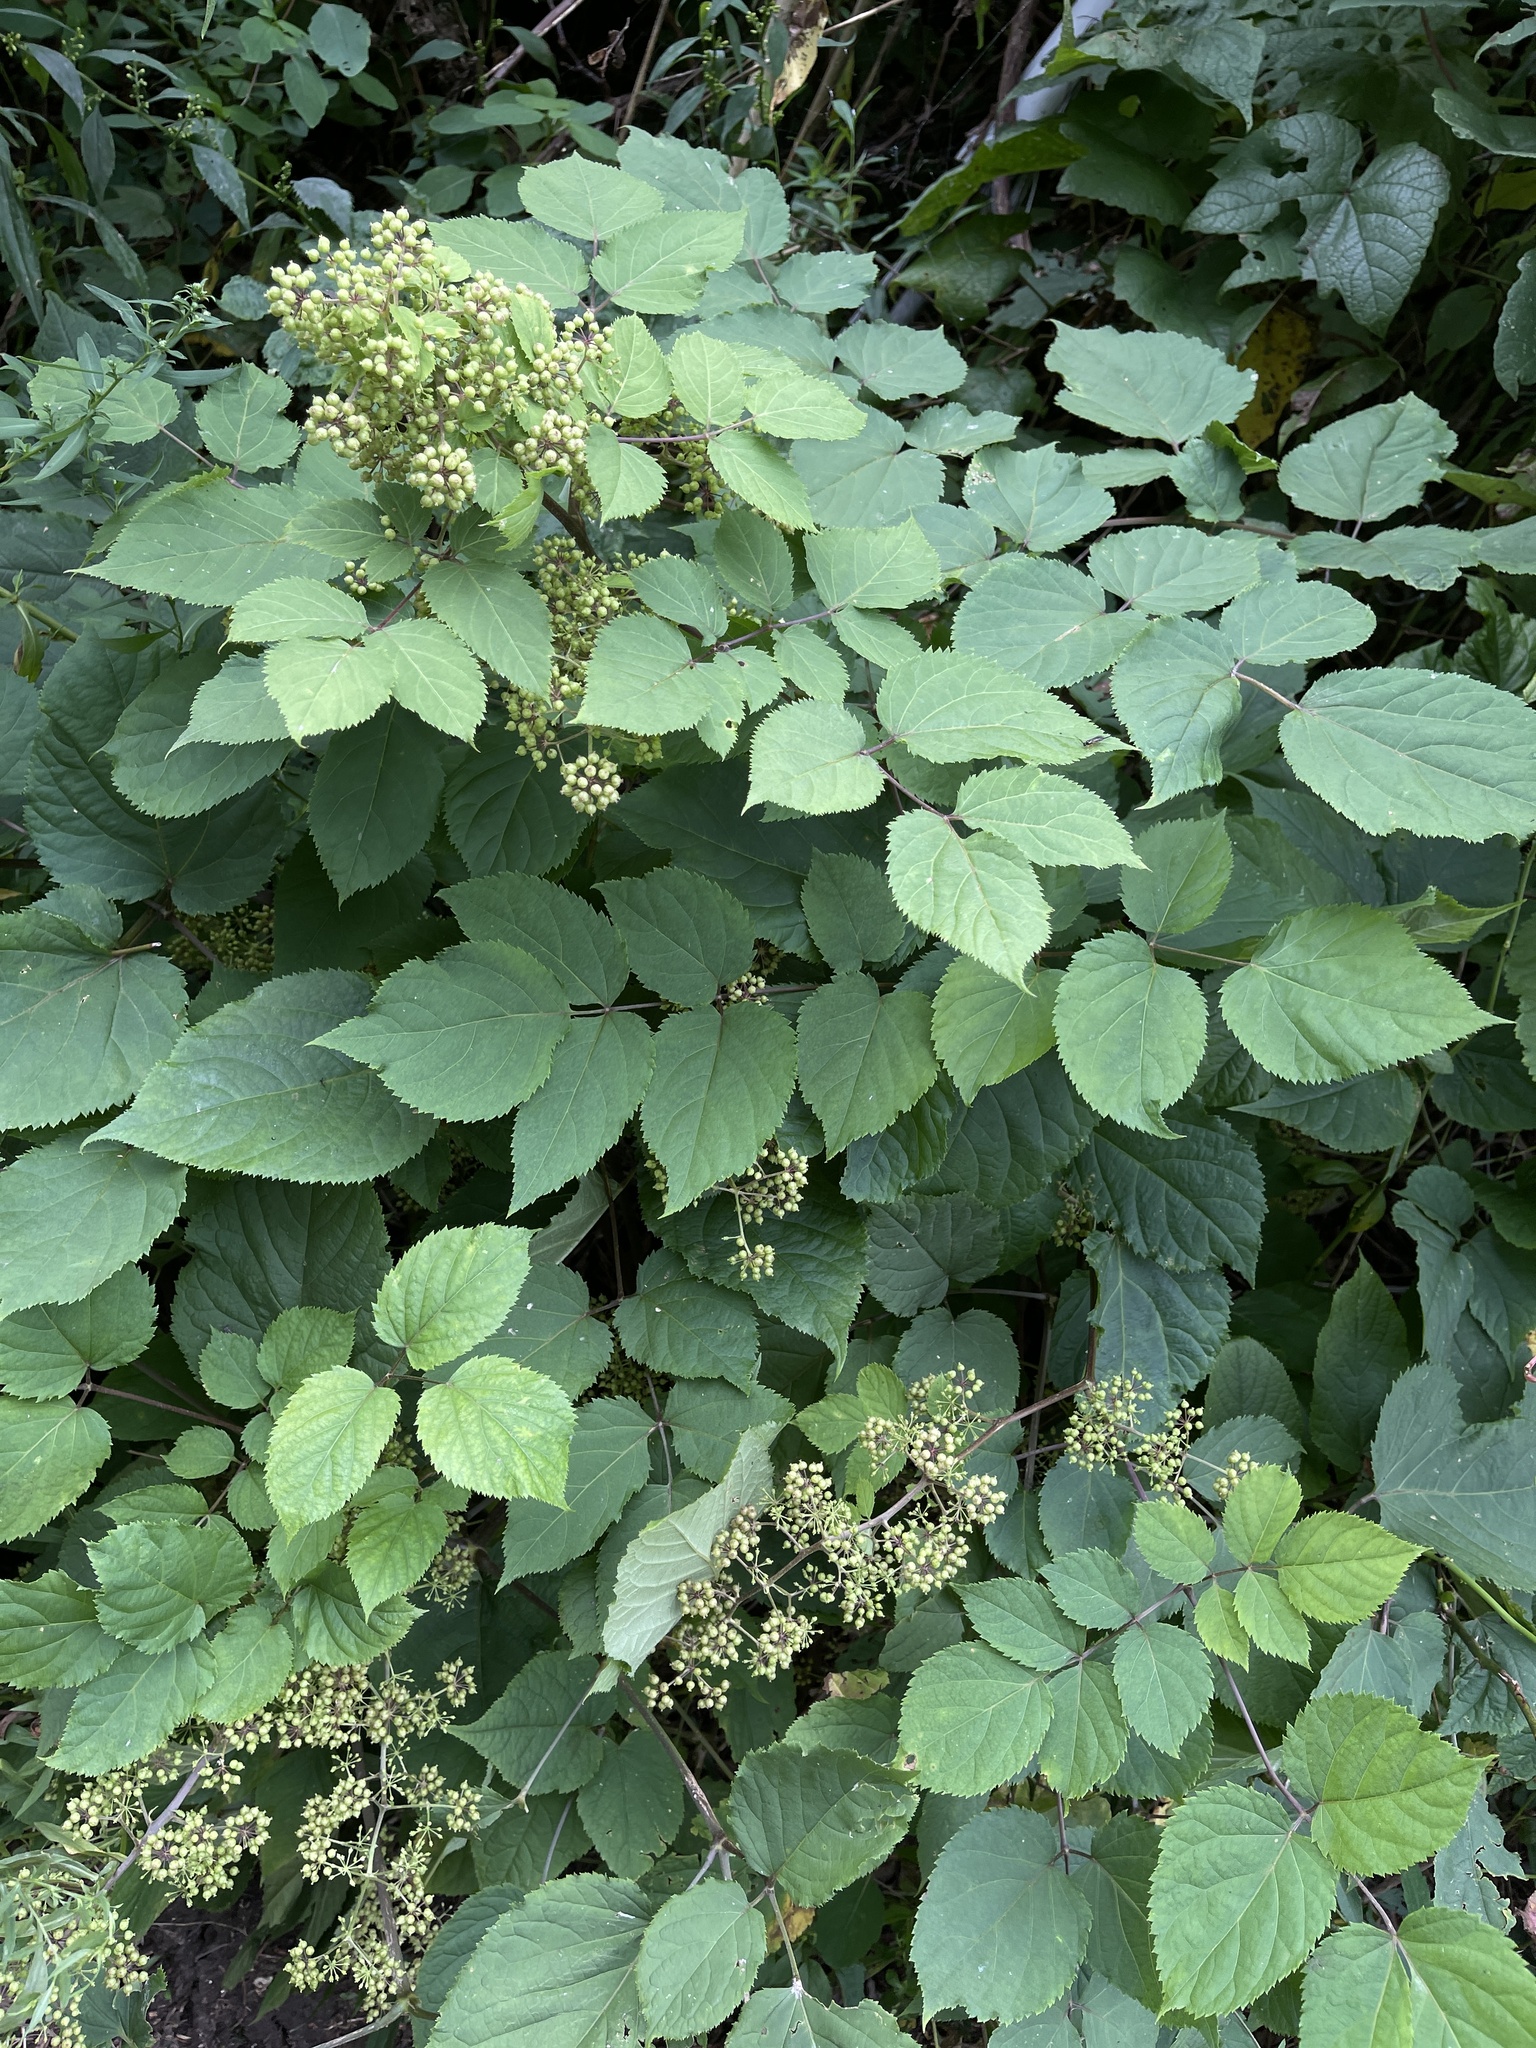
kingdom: Plantae
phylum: Tracheophyta
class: Magnoliopsida
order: Apiales
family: Araliaceae
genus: Aralia
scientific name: Aralia racemosa
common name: American-spikenard
